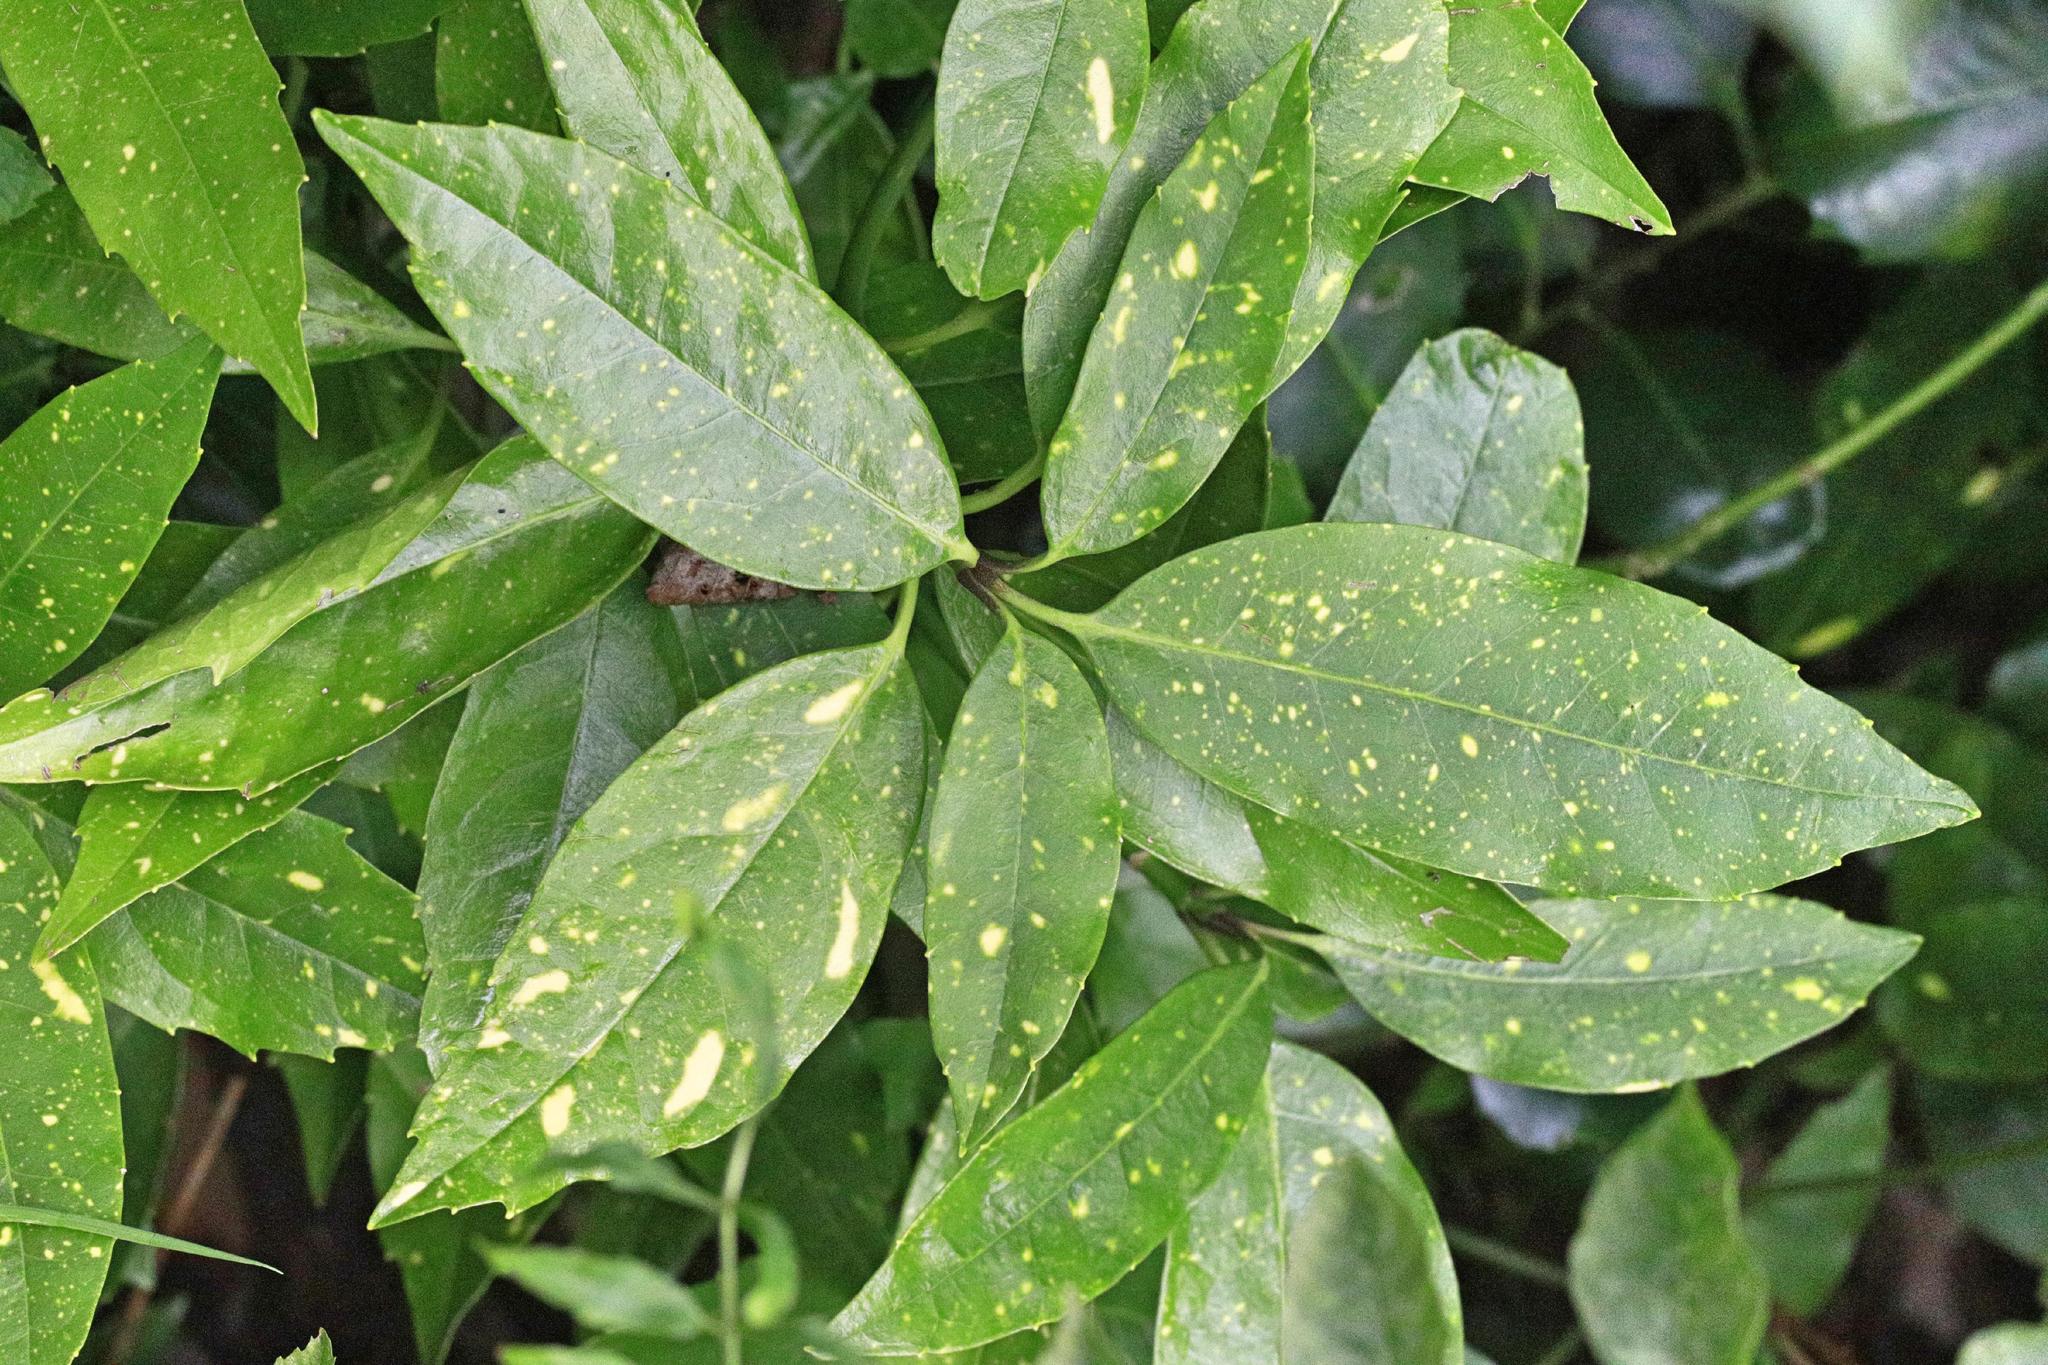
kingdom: Plantae
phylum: Tracheophyta
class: Magnoliopsida
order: Garryales
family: Garryaceae
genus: Aucuba
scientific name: Aucuba japonica
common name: Spotted-laurel
